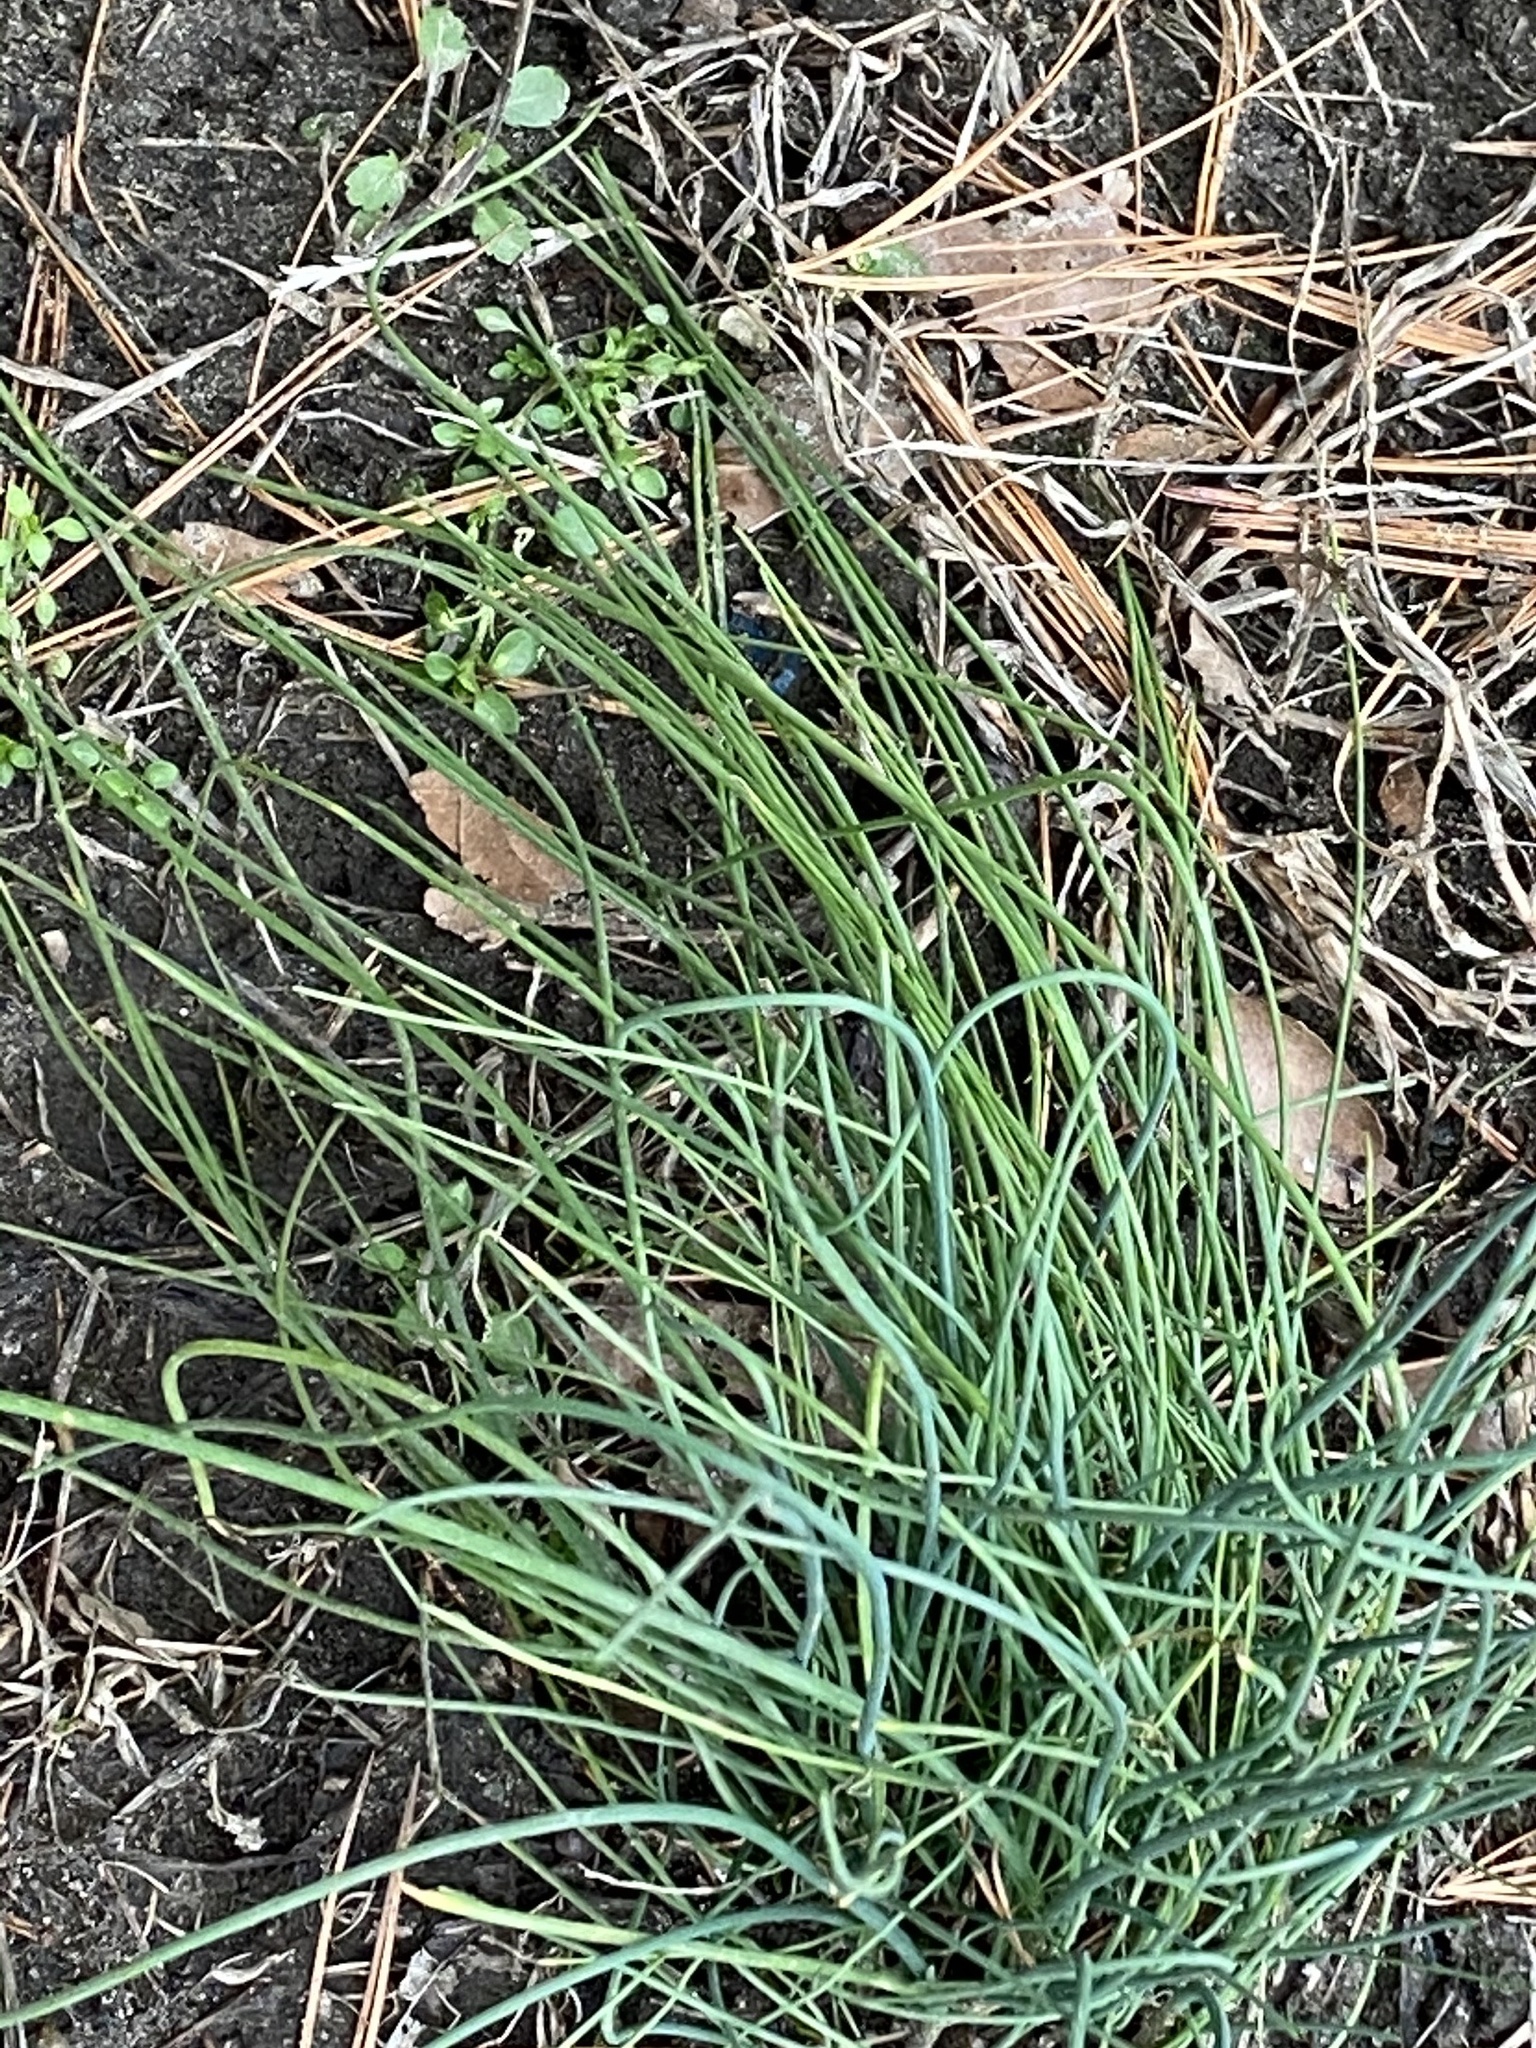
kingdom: Plantae
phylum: Tracheophyta
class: Liliopsida
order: Asparagales
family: Amaryllidaceae
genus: Allium
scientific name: Allium vineale
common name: Crow garlic
